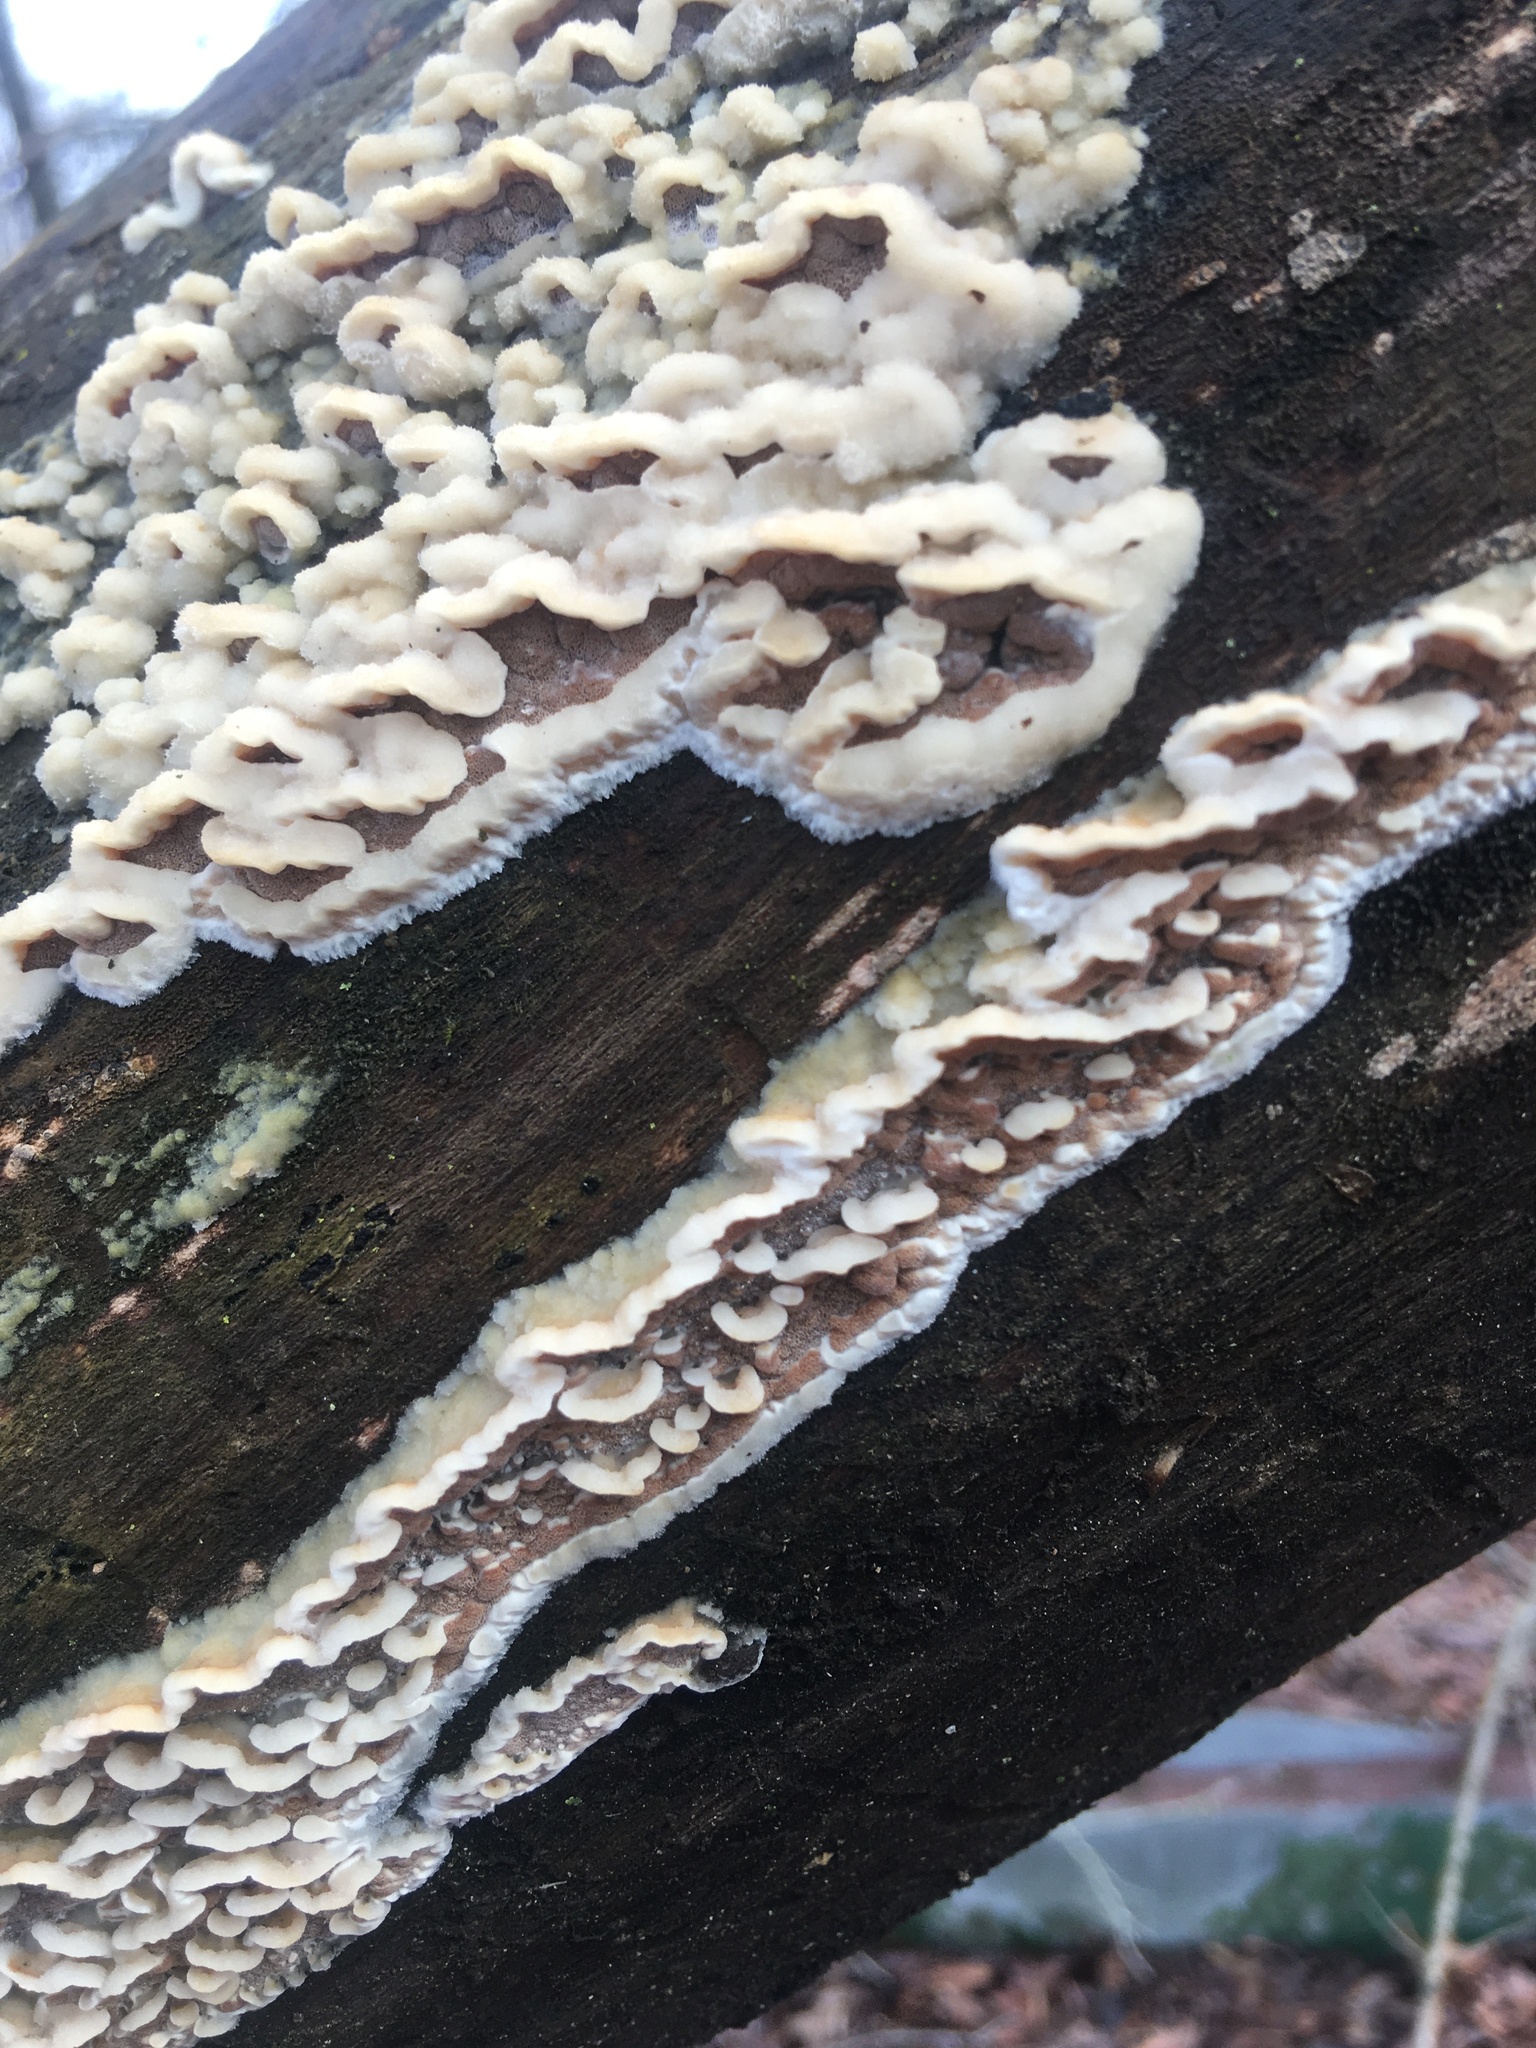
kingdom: Fungi
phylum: Basidiomycota
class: Agaricomycetes
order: Polyporales
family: Irpicaceae
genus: Vitreoporus
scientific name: Vitreoporus dichrous
